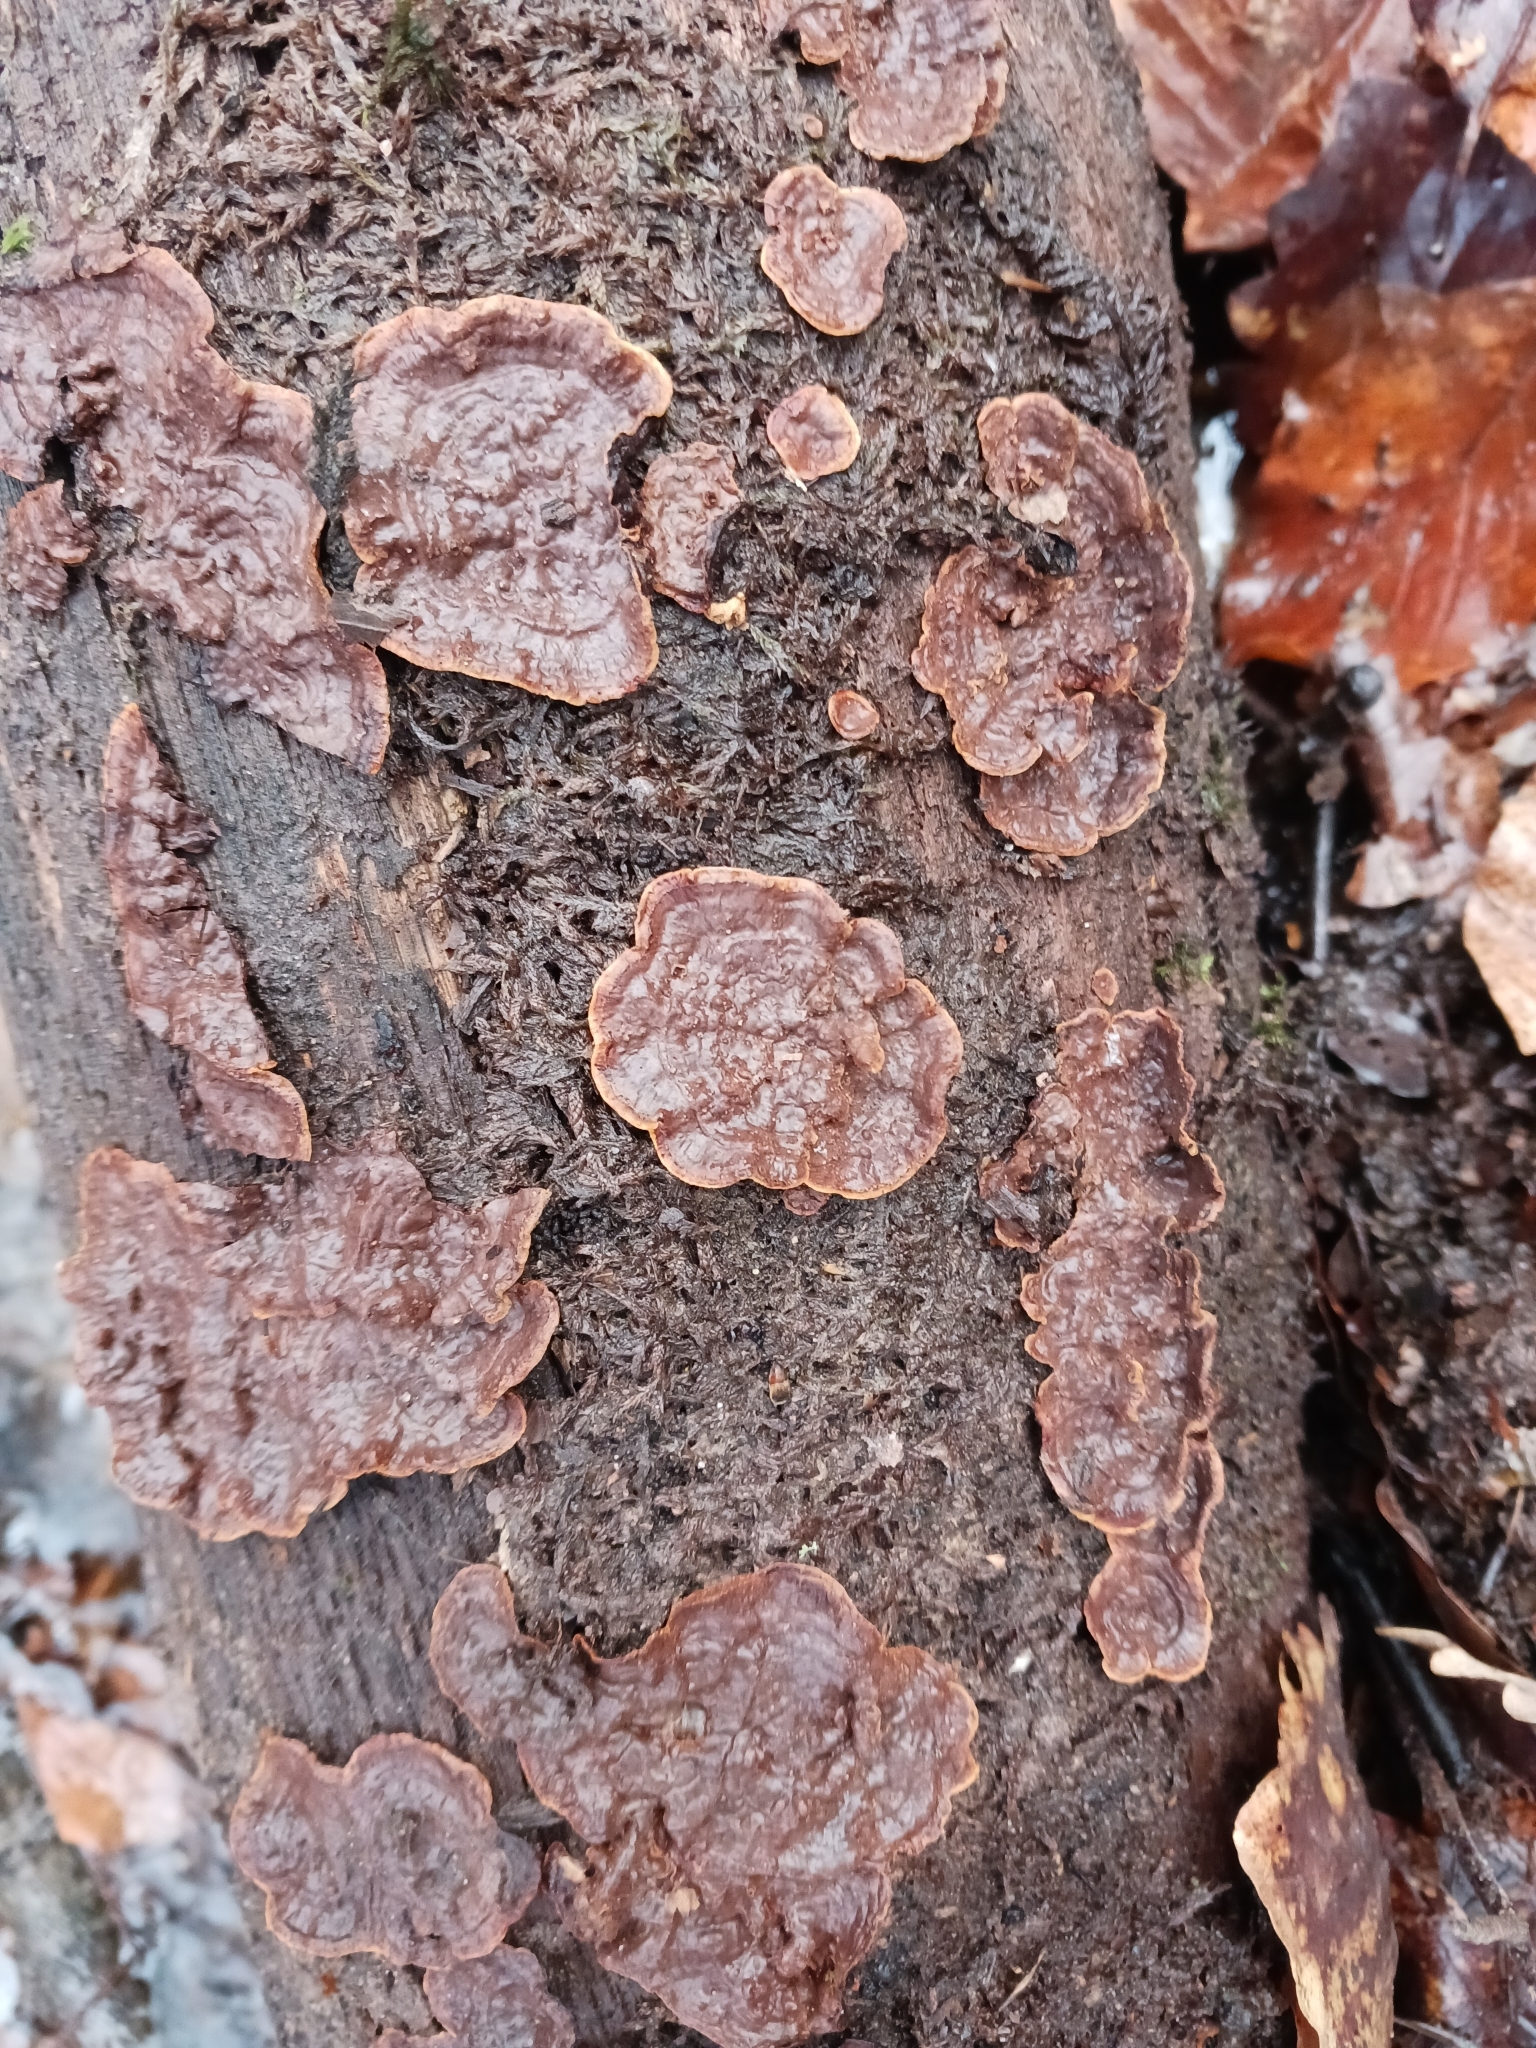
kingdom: Fungi
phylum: Basidiomycota
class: Agaricomycetes
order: Hymenochaetales
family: Hymenochaetaceae
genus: Hymenochaete
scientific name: Hymenochaete rubiginosa
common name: Oak curtain crust
